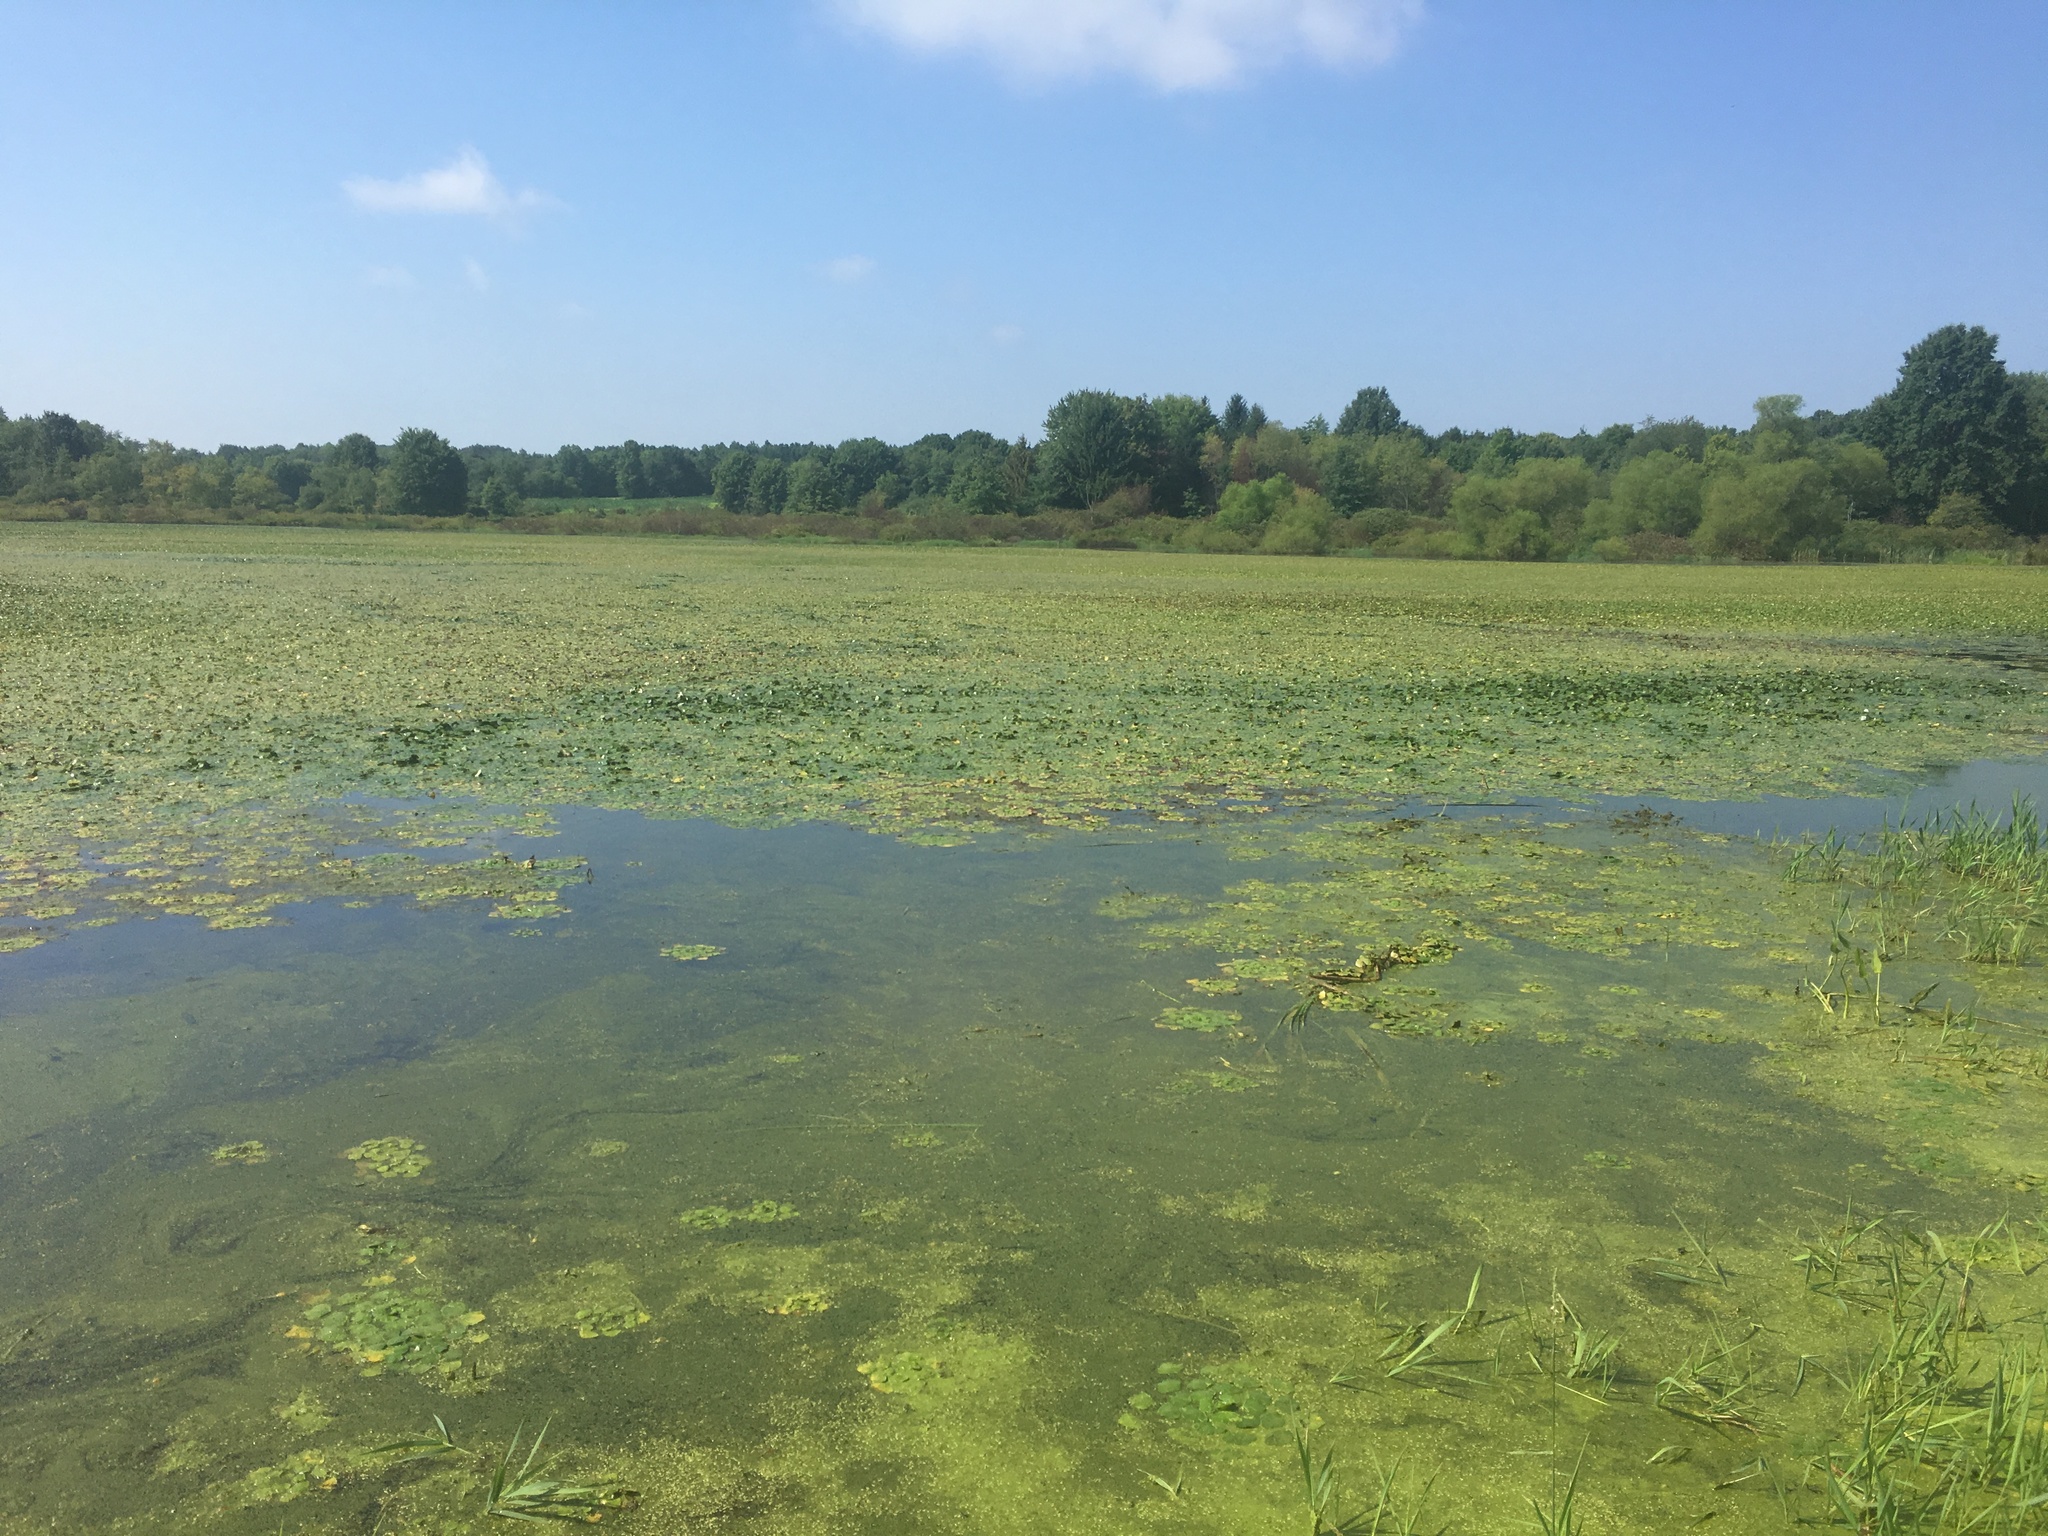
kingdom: Plantae
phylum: Tracheophyta
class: Magnoliopsida
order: Myrtales
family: Lythraceae
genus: Trapa
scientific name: Trapa natans
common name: Water chestnut
